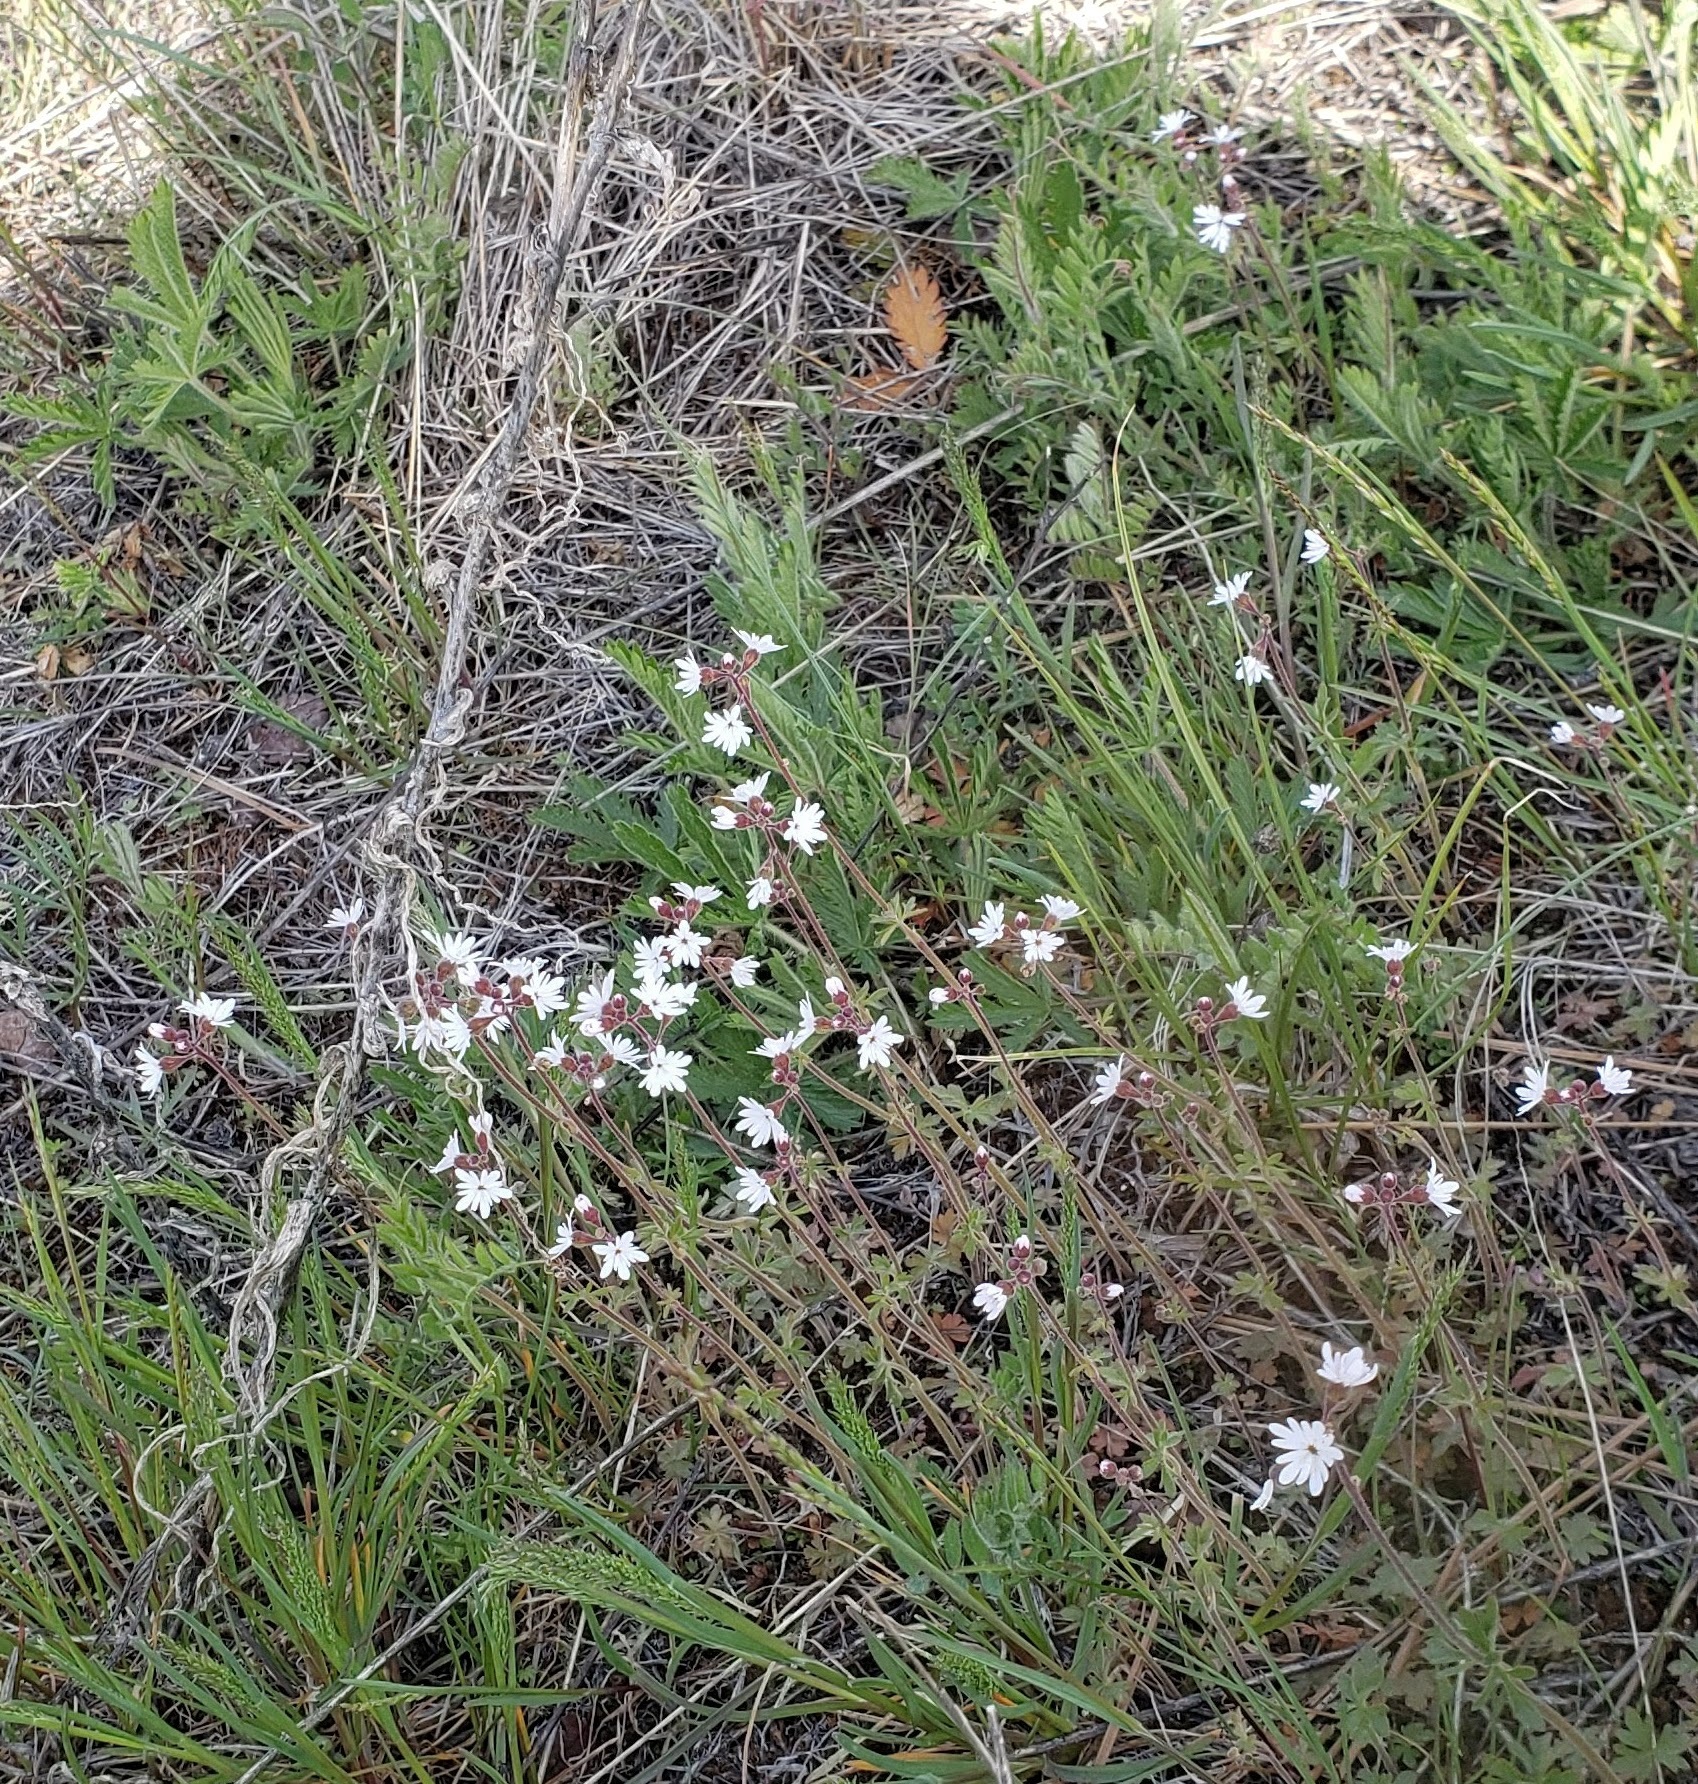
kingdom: Plantae
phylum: Tracheophyta
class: Magnoliopsida
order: Saxifragales
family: Saxifragaceae
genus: Lithophragma
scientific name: Lithophragma parviflorum
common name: Small-flowered fringe-cup
